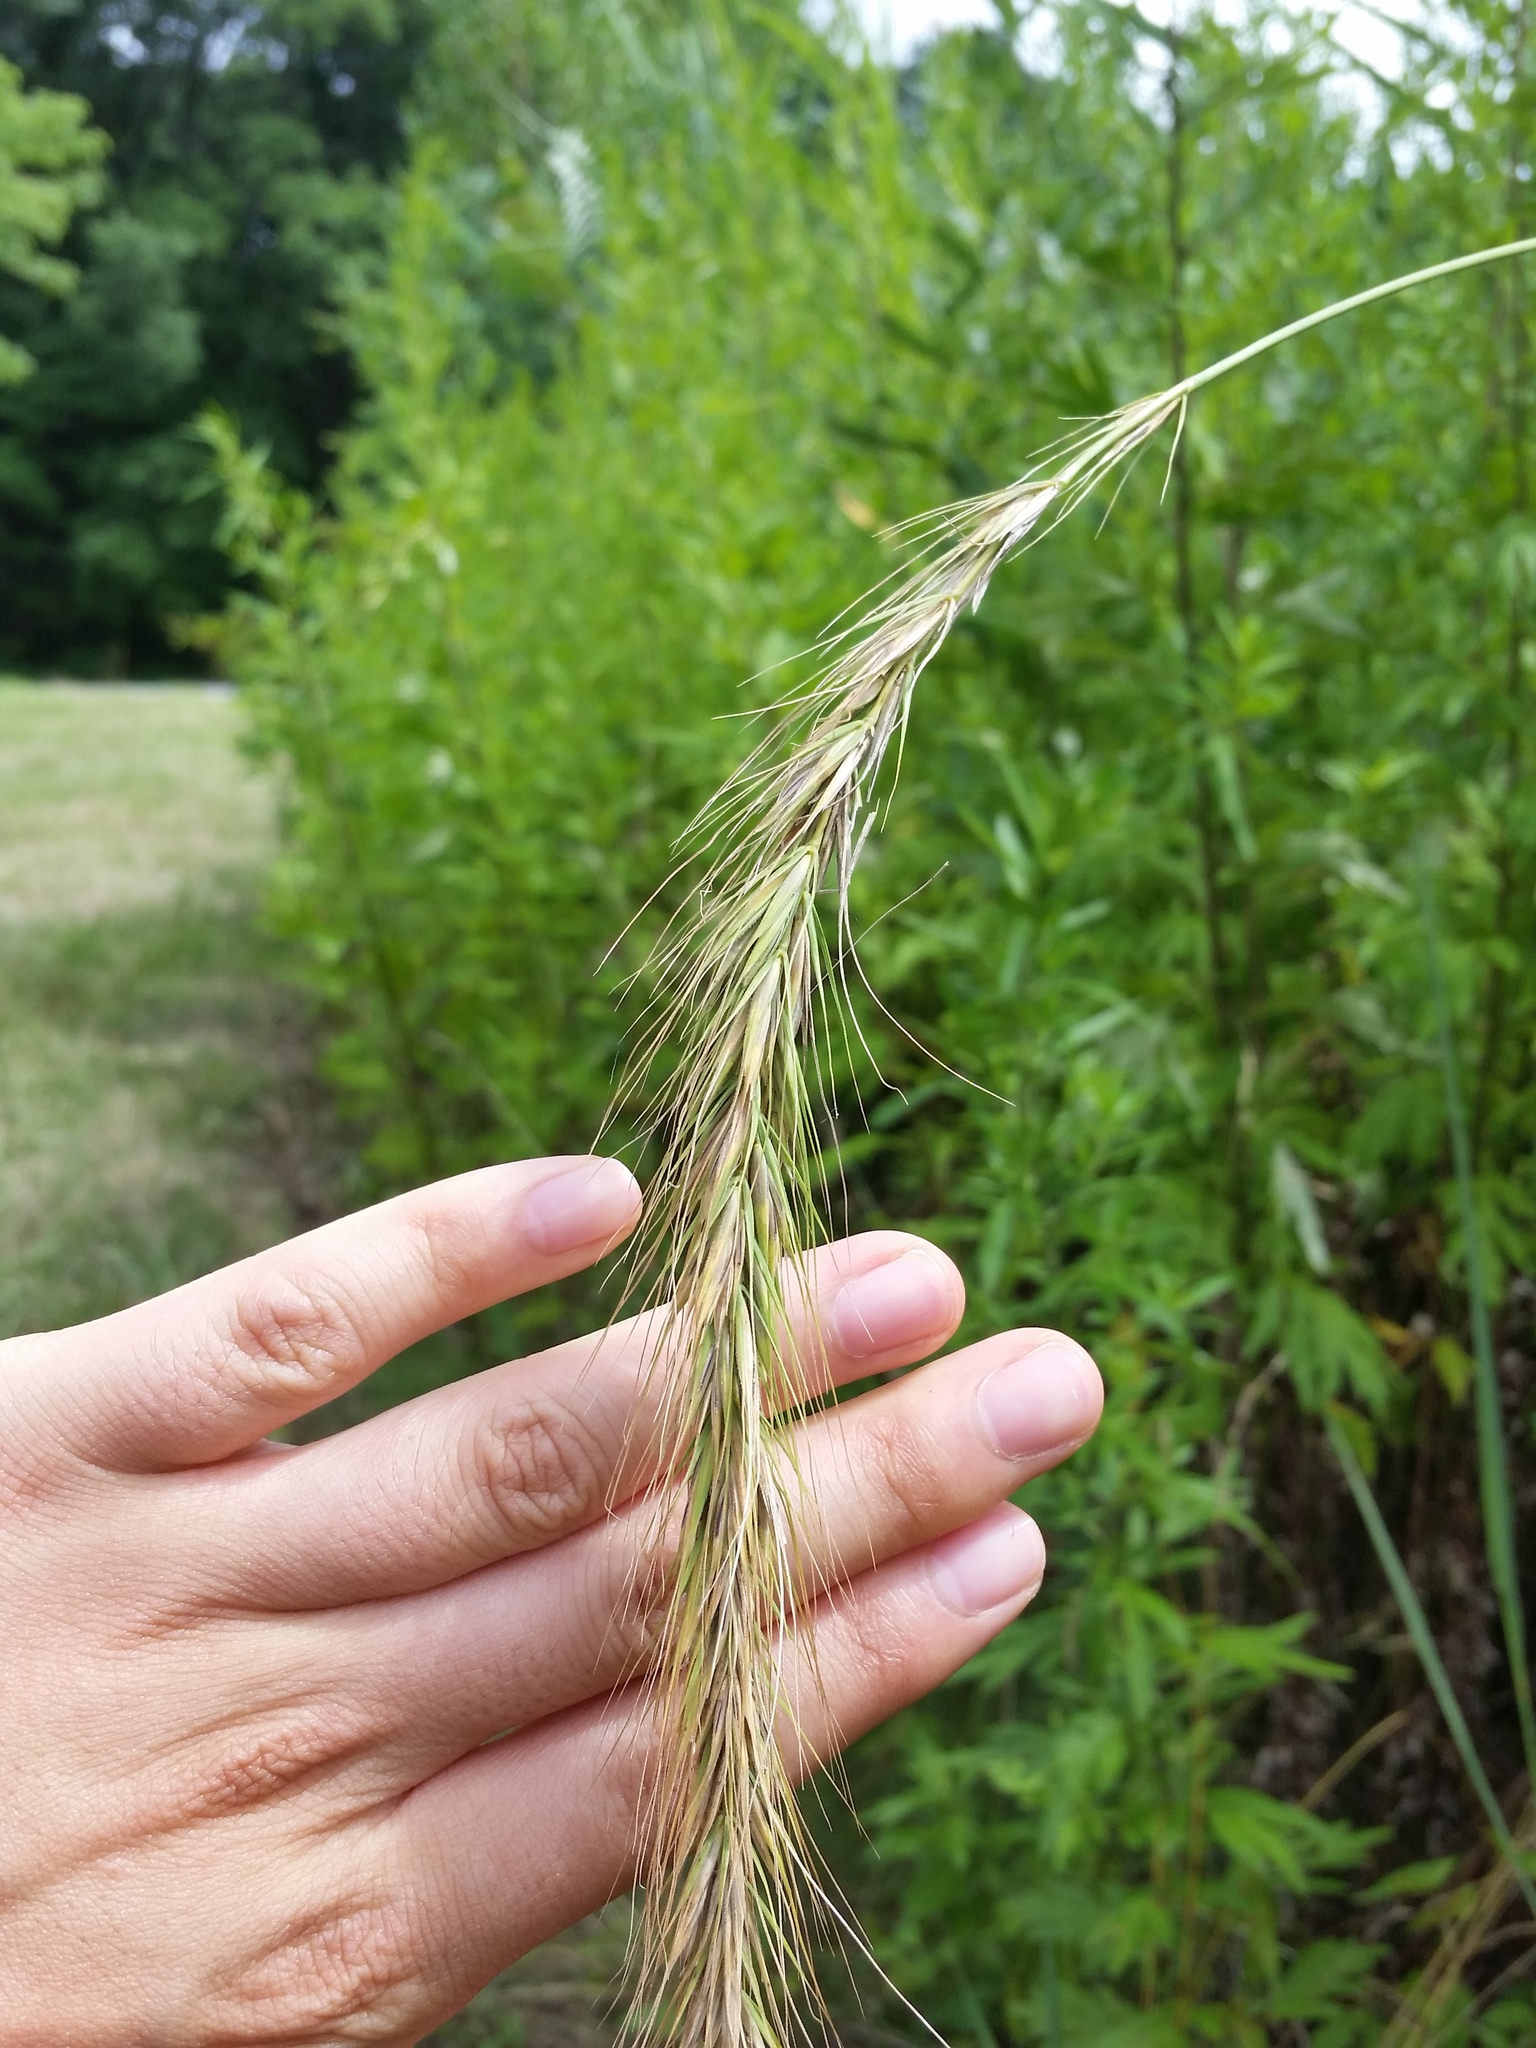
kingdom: Plantae
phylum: Tracheophyta
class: Liliopsida
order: Poales
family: Poaceae
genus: Elymus
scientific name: Elymus canadensis
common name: Canada wild rye
